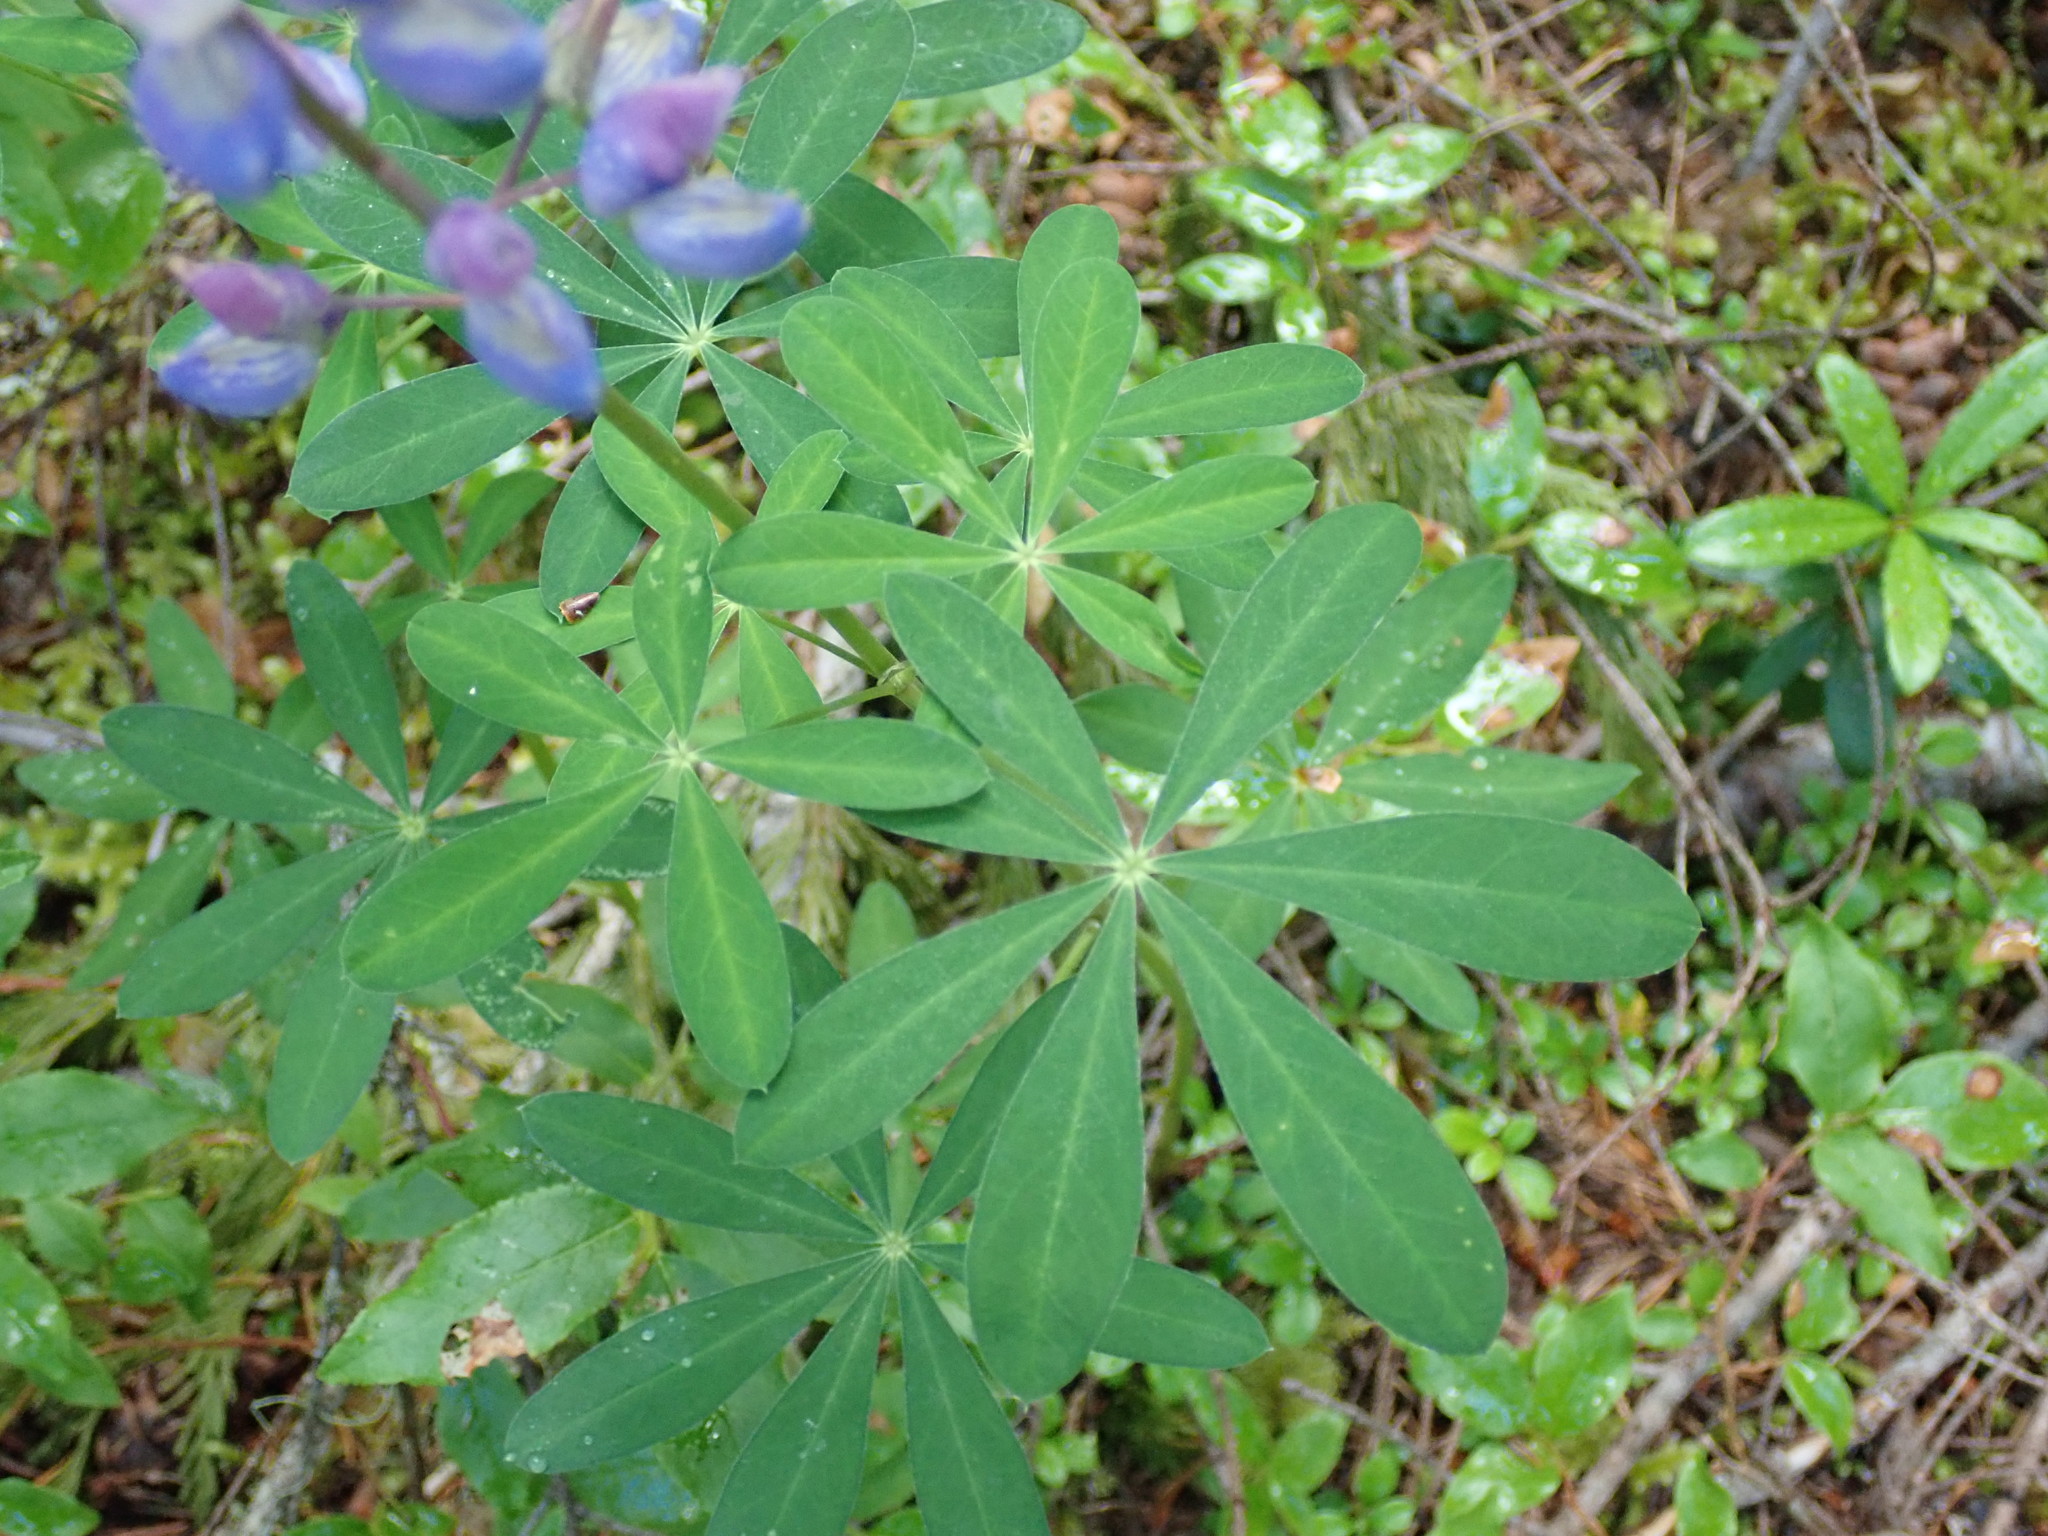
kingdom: Plantae
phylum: Tracheophyta
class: Magnoliopsida
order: Fabales
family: Fabaceae
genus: Lupinus
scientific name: Lupinus arcticus
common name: Arctic lupine
